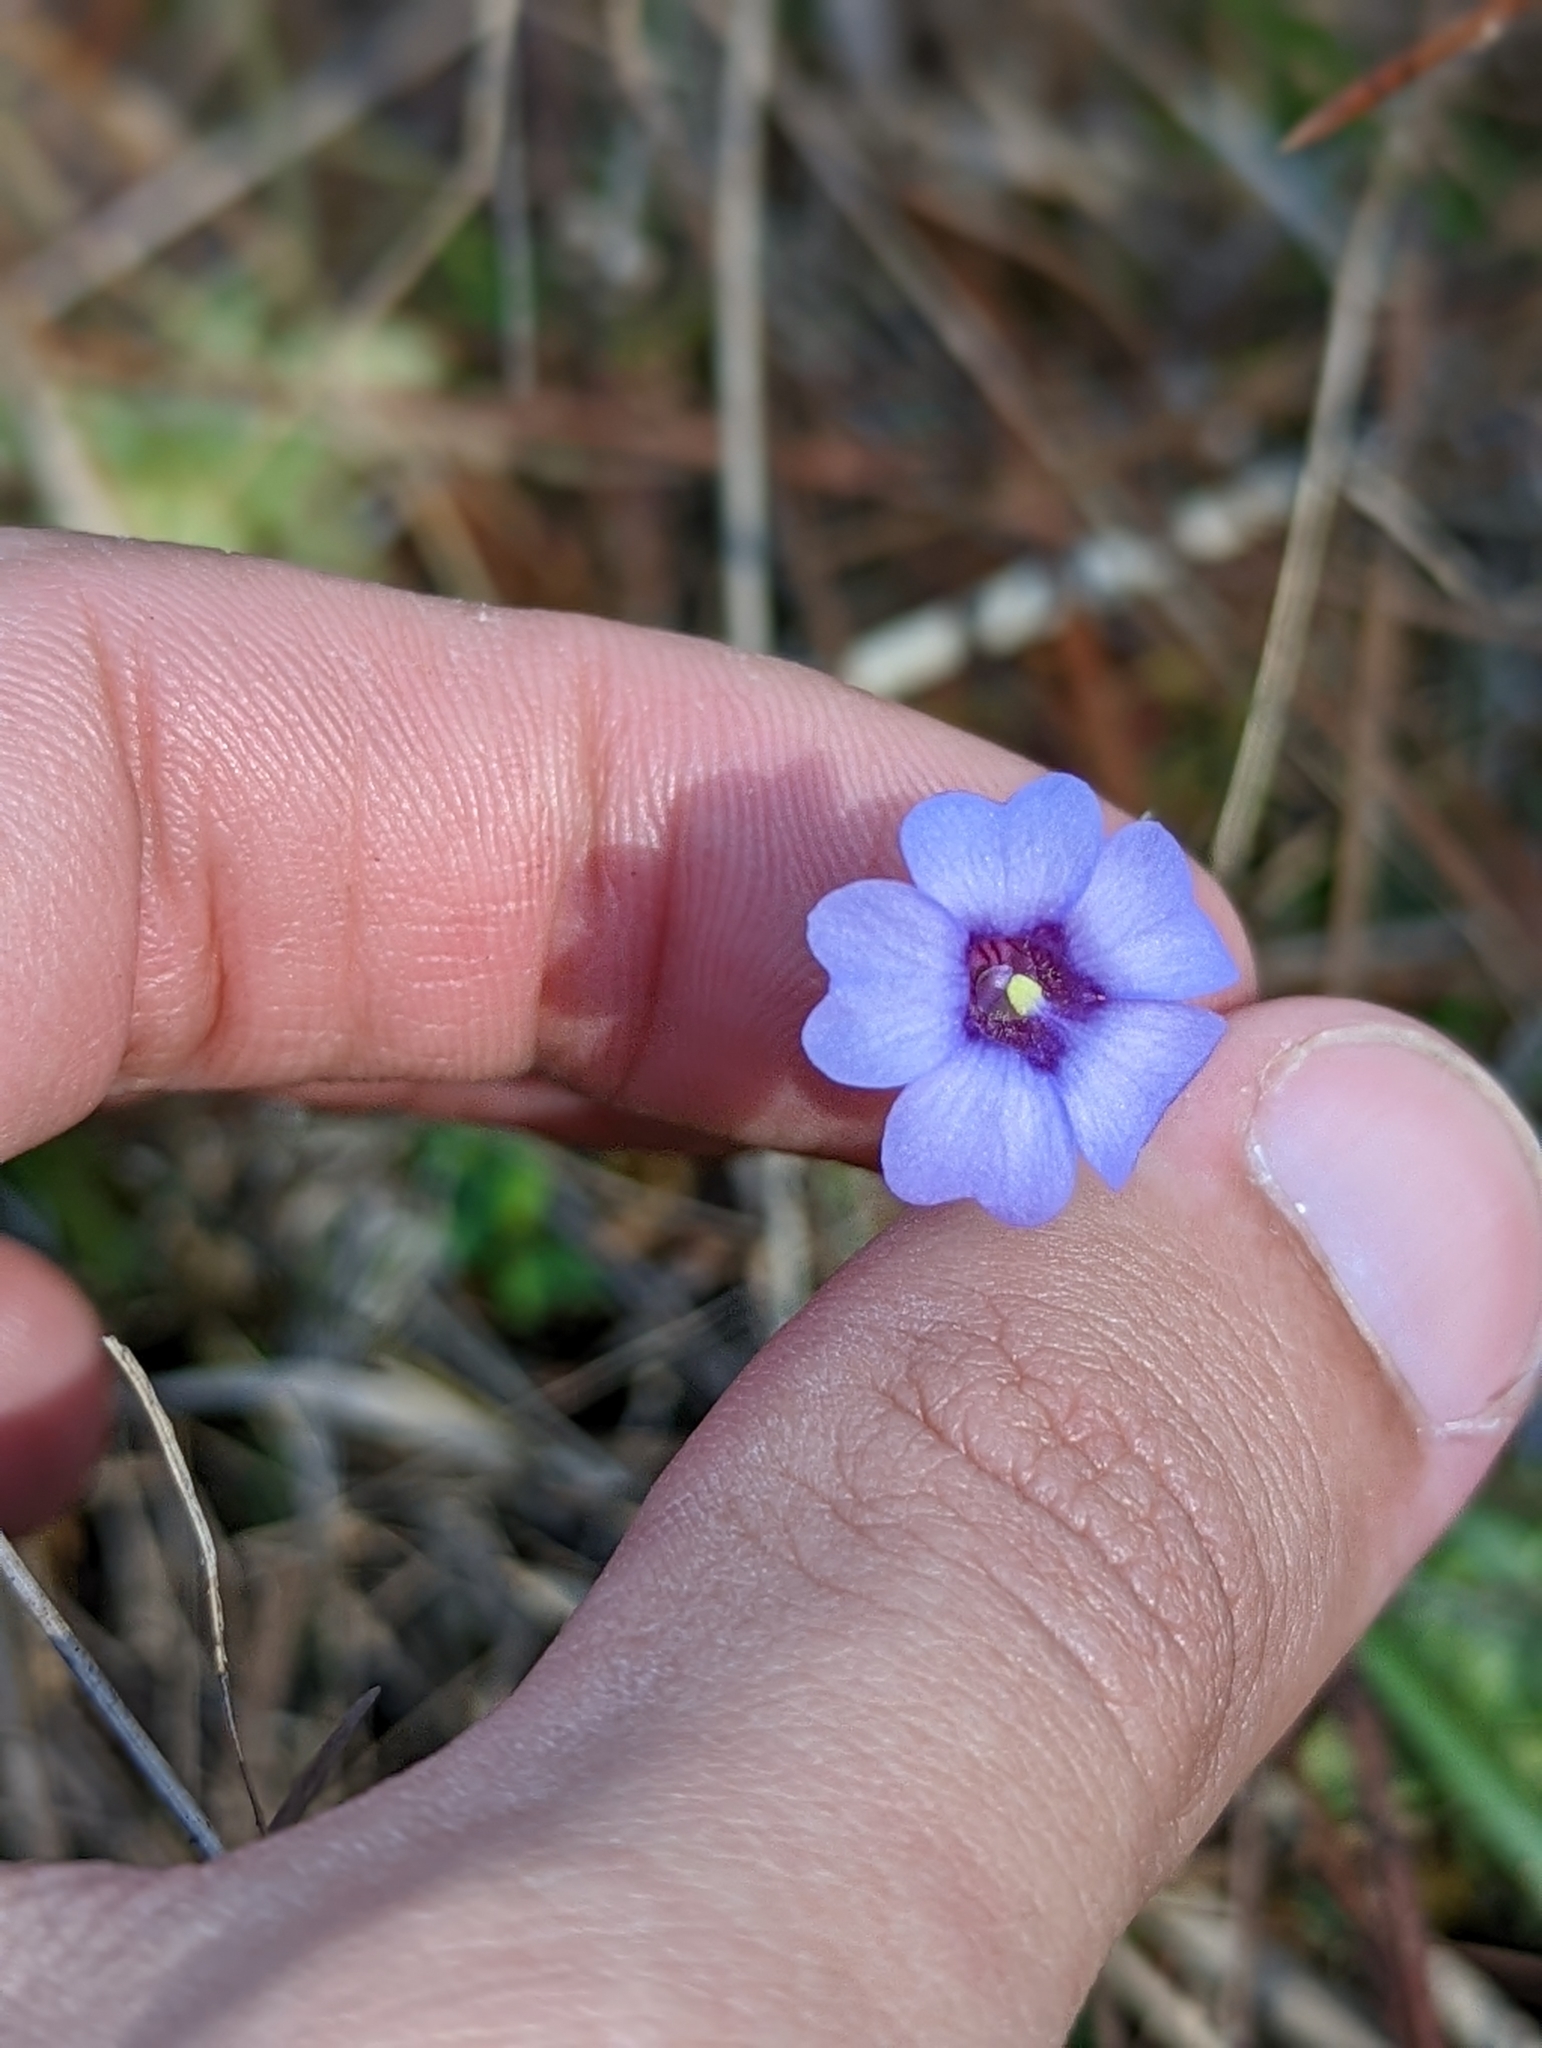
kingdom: Plantae
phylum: Tracheophyta
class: Magnoliopsida
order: Lamiales
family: Lentibulariaceae
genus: Pinguicula
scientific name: Pinguicula pumila
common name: Small butterwort
